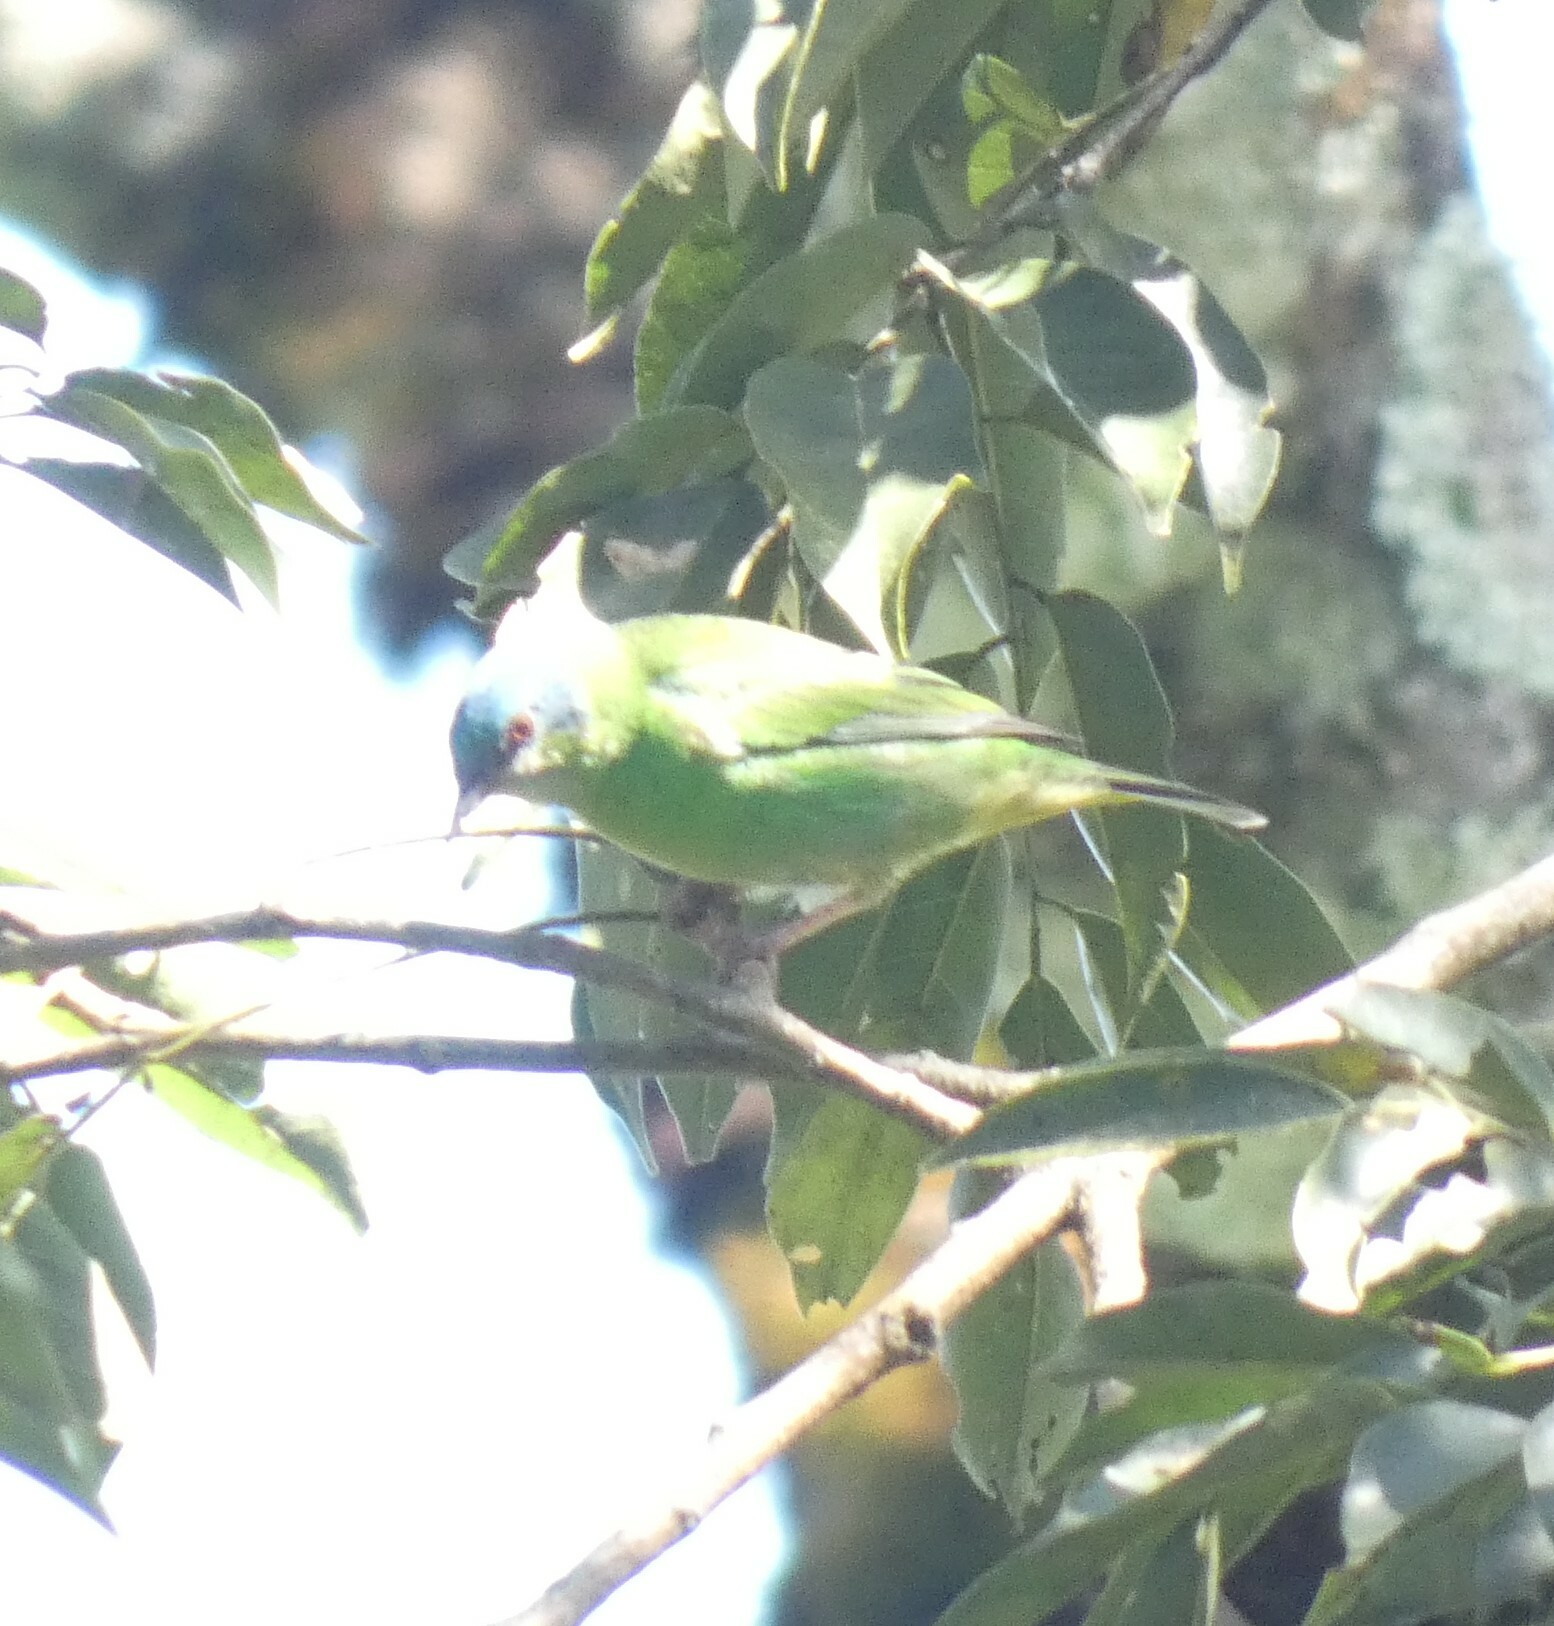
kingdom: Animalia
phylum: Chordata
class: Aves
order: Passeriformes
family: Thraupidae
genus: Dacnis
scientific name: Dacnis cayana
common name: Blue dacnis
